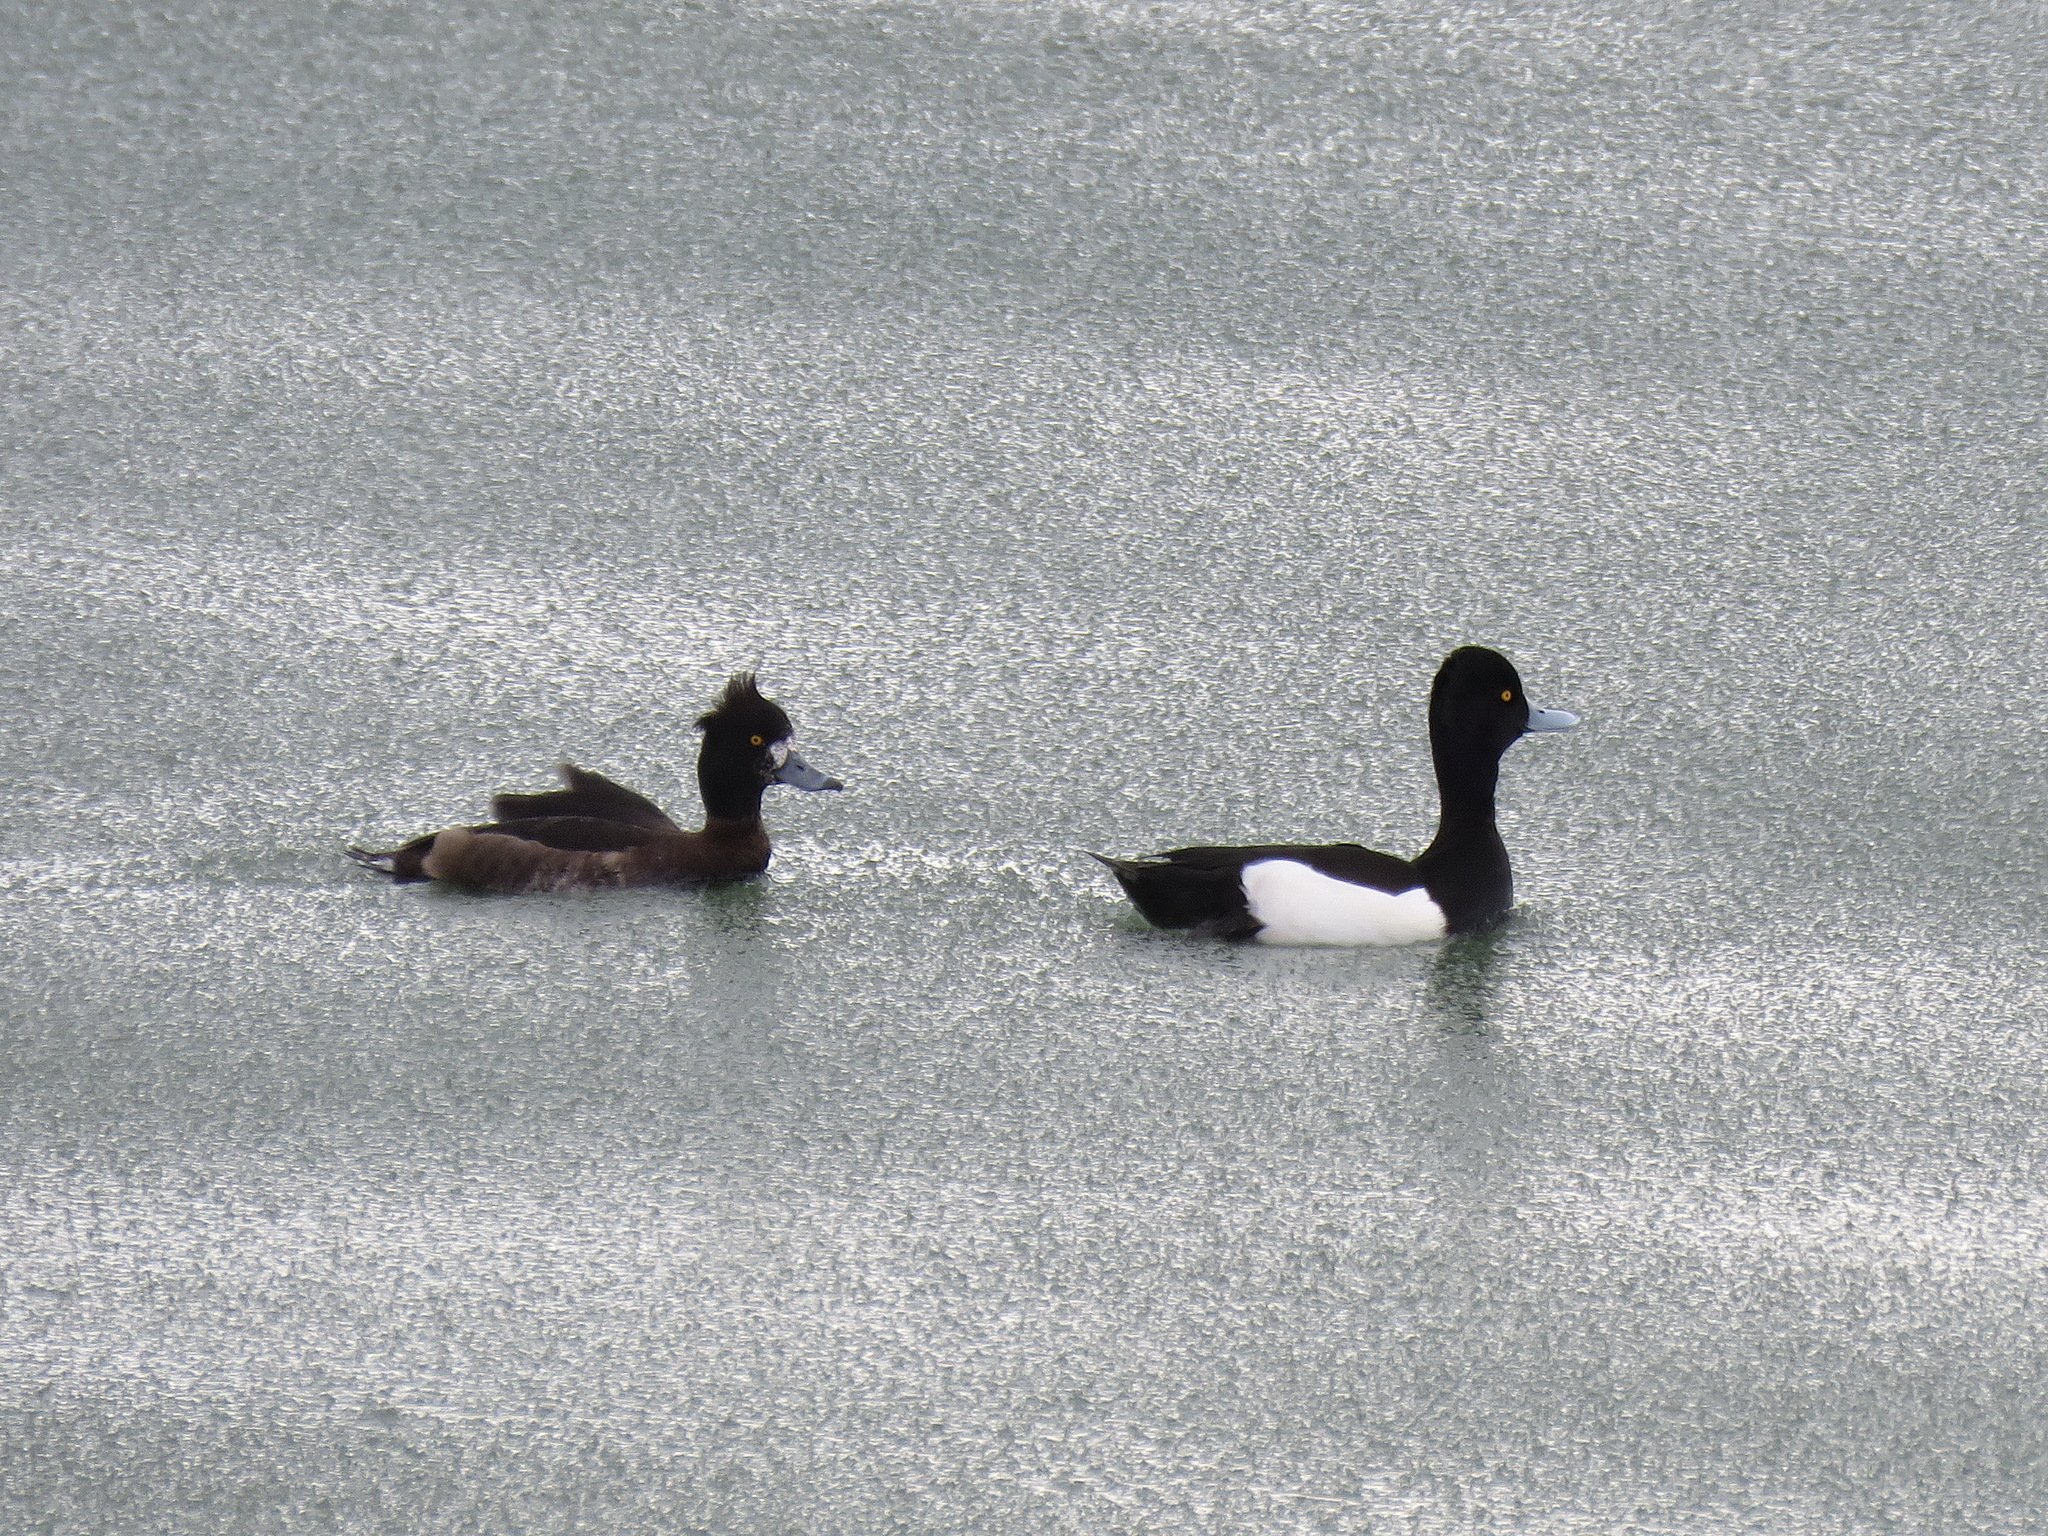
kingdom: Animalia
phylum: Chordata
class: Aves
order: Anseriformes
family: Anatidae
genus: Aythya
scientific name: Aythya fuligula
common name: Tufted duck
